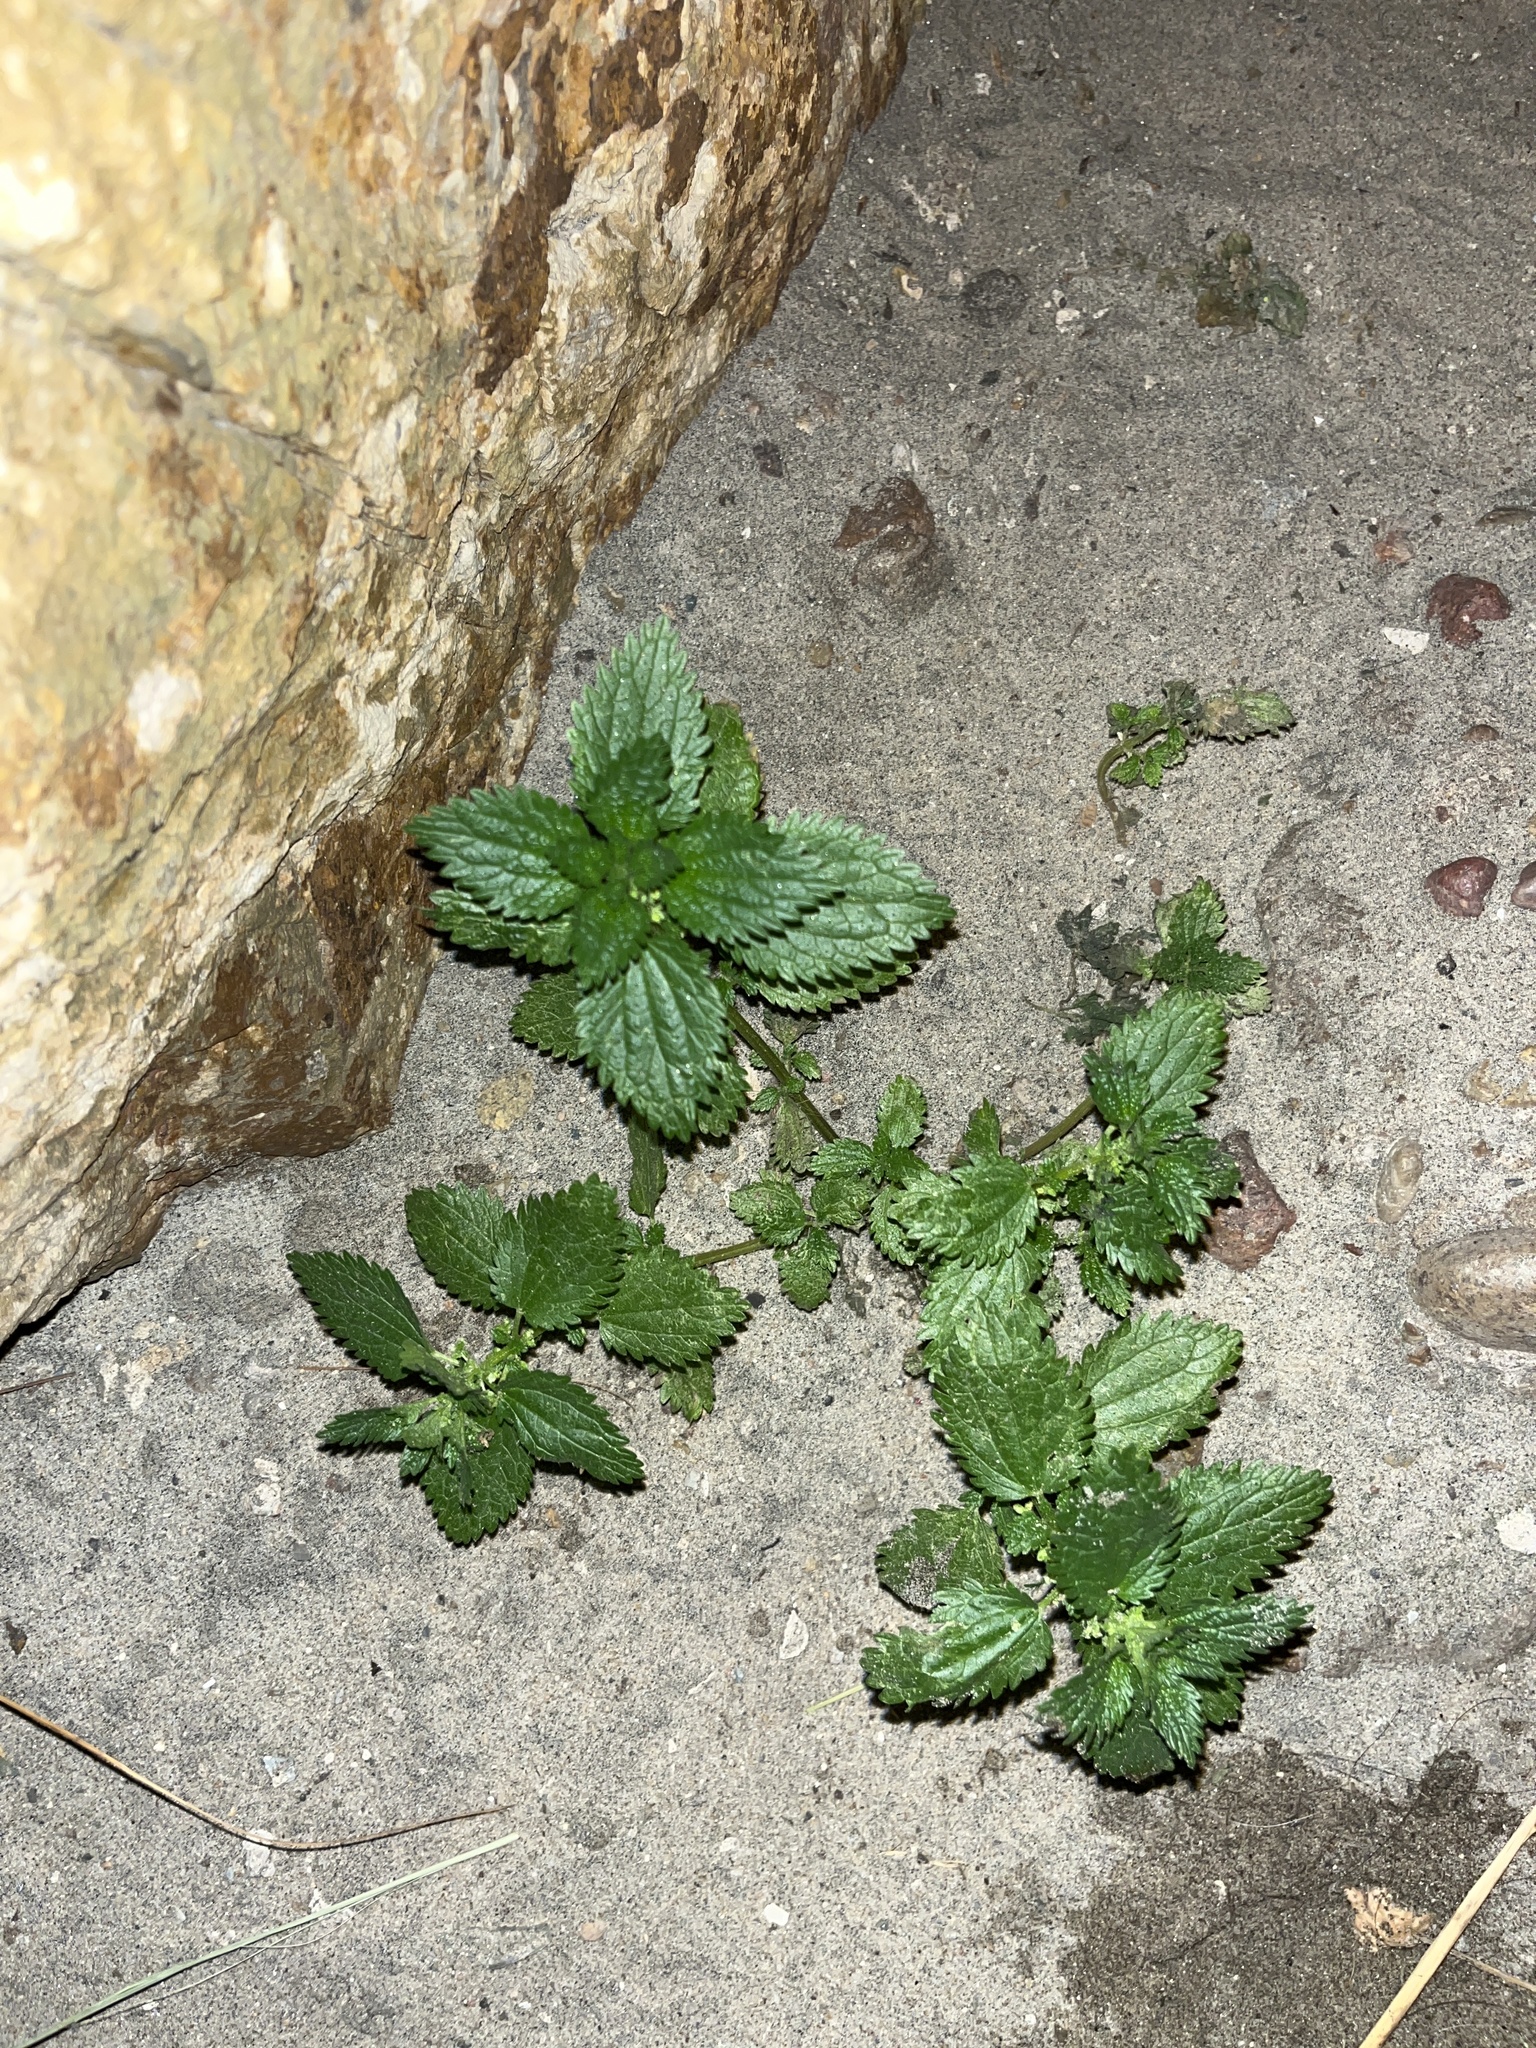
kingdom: Plantae
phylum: Tracheophyta
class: Magnoliopsida
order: Rosales
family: Urticaceae
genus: Urtica
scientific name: Urtica urens
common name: Dwarf nettle
